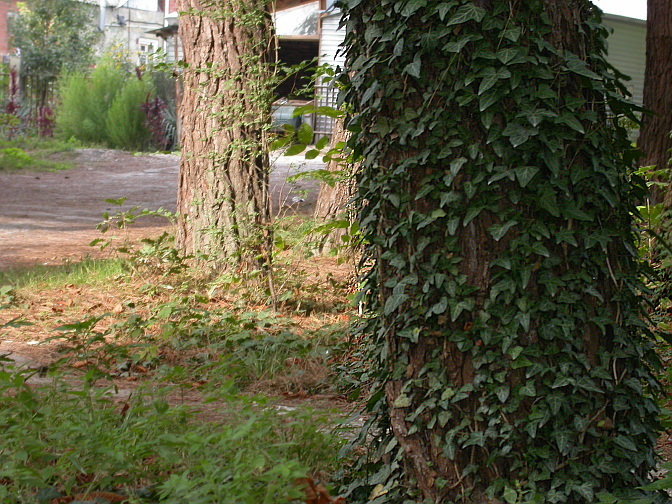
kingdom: Plantae
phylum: Tracheophyta
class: Magnoliopsida
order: Apiales
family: Araliaceae
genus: Hedera
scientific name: Hedera helix
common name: Ivy
